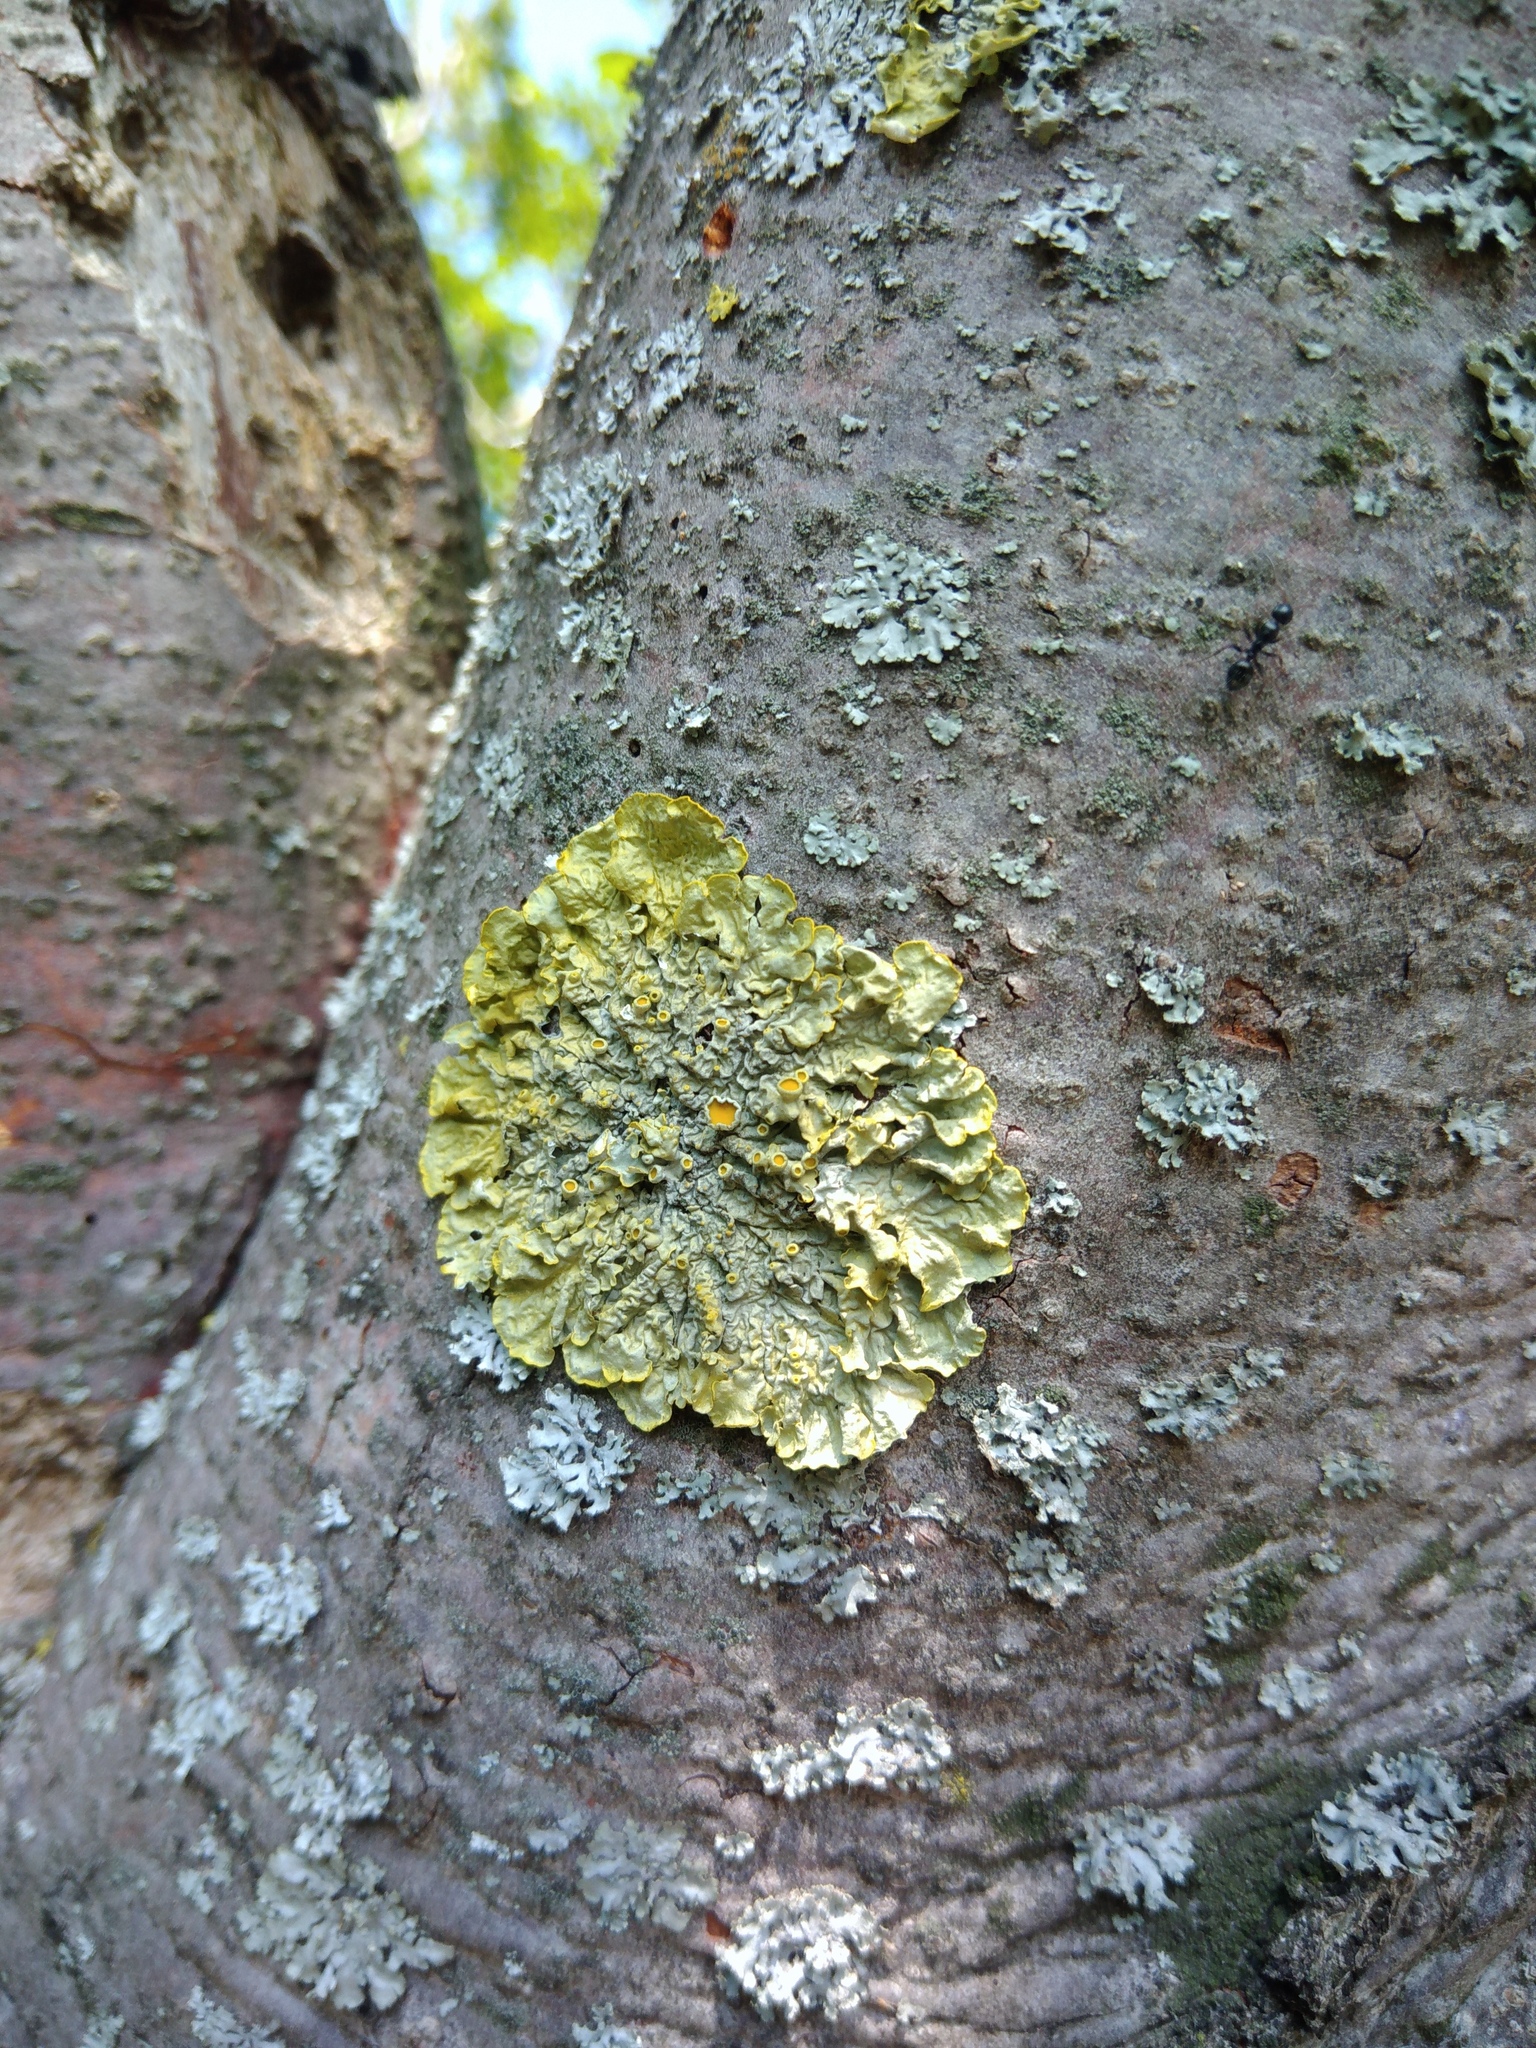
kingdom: Fungi
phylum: Ascomycota
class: Lecanoromycetes
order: Teloschistales
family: Teloschistaceae
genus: Xanthoria
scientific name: Xanthoria parietina
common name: Common orange lichen
